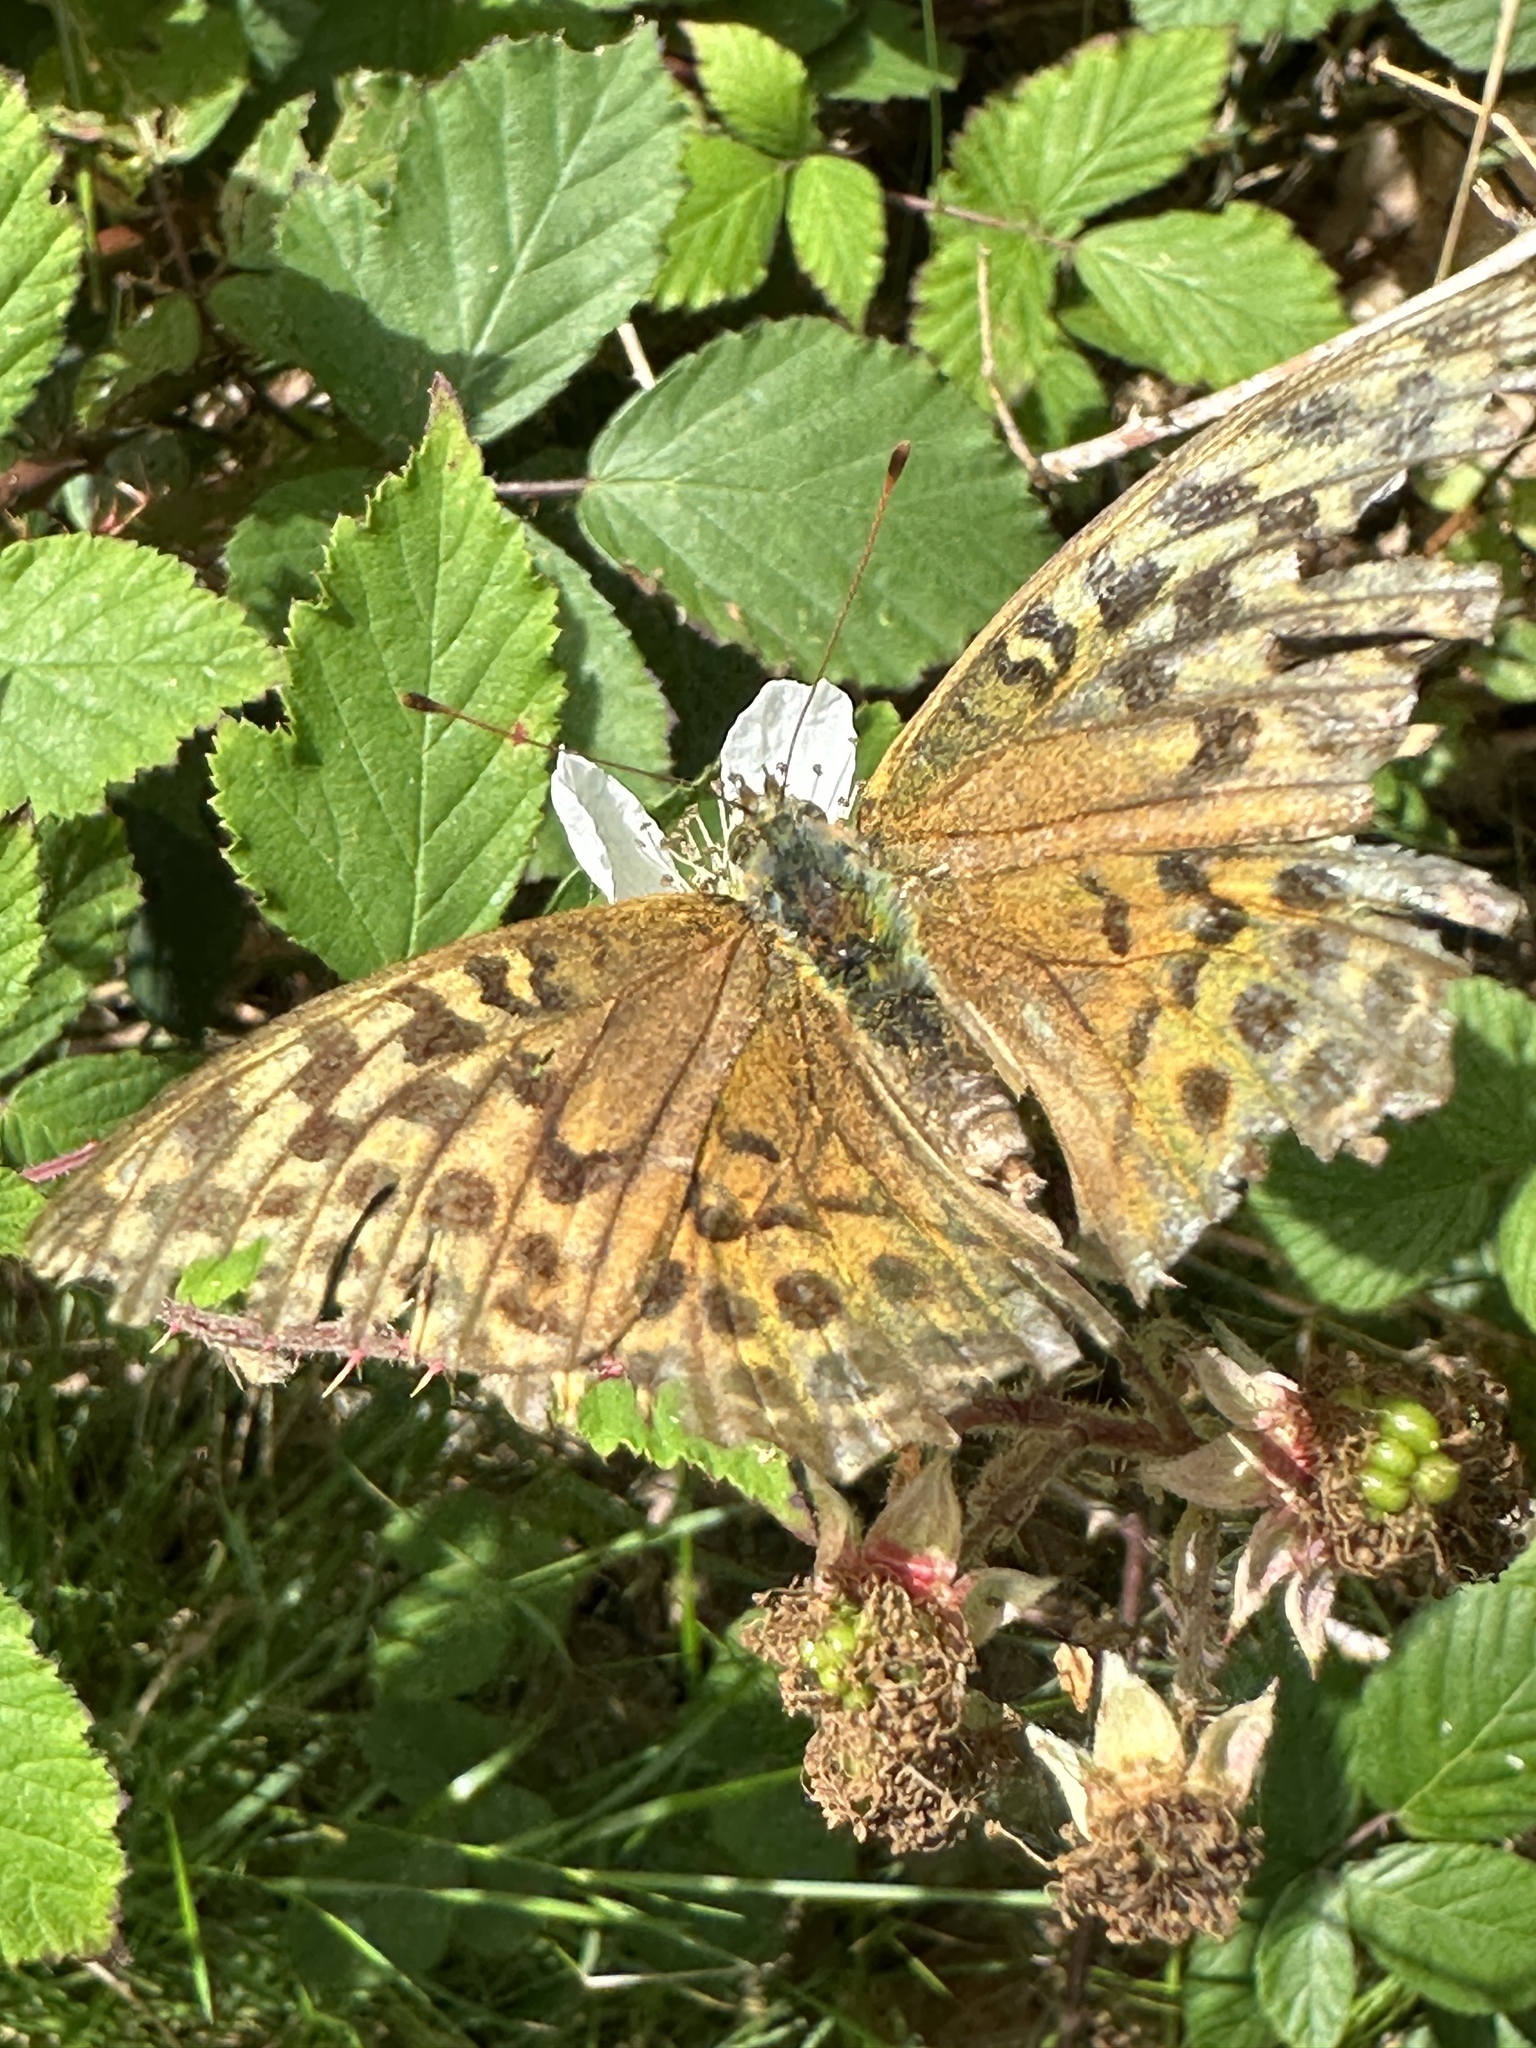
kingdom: Animalia
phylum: Arthropoda
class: Insecta
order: Lepidoptera
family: Nymphalidae
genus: Argynnis
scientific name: Argynnis paphia
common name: Silver-washed fritillary
